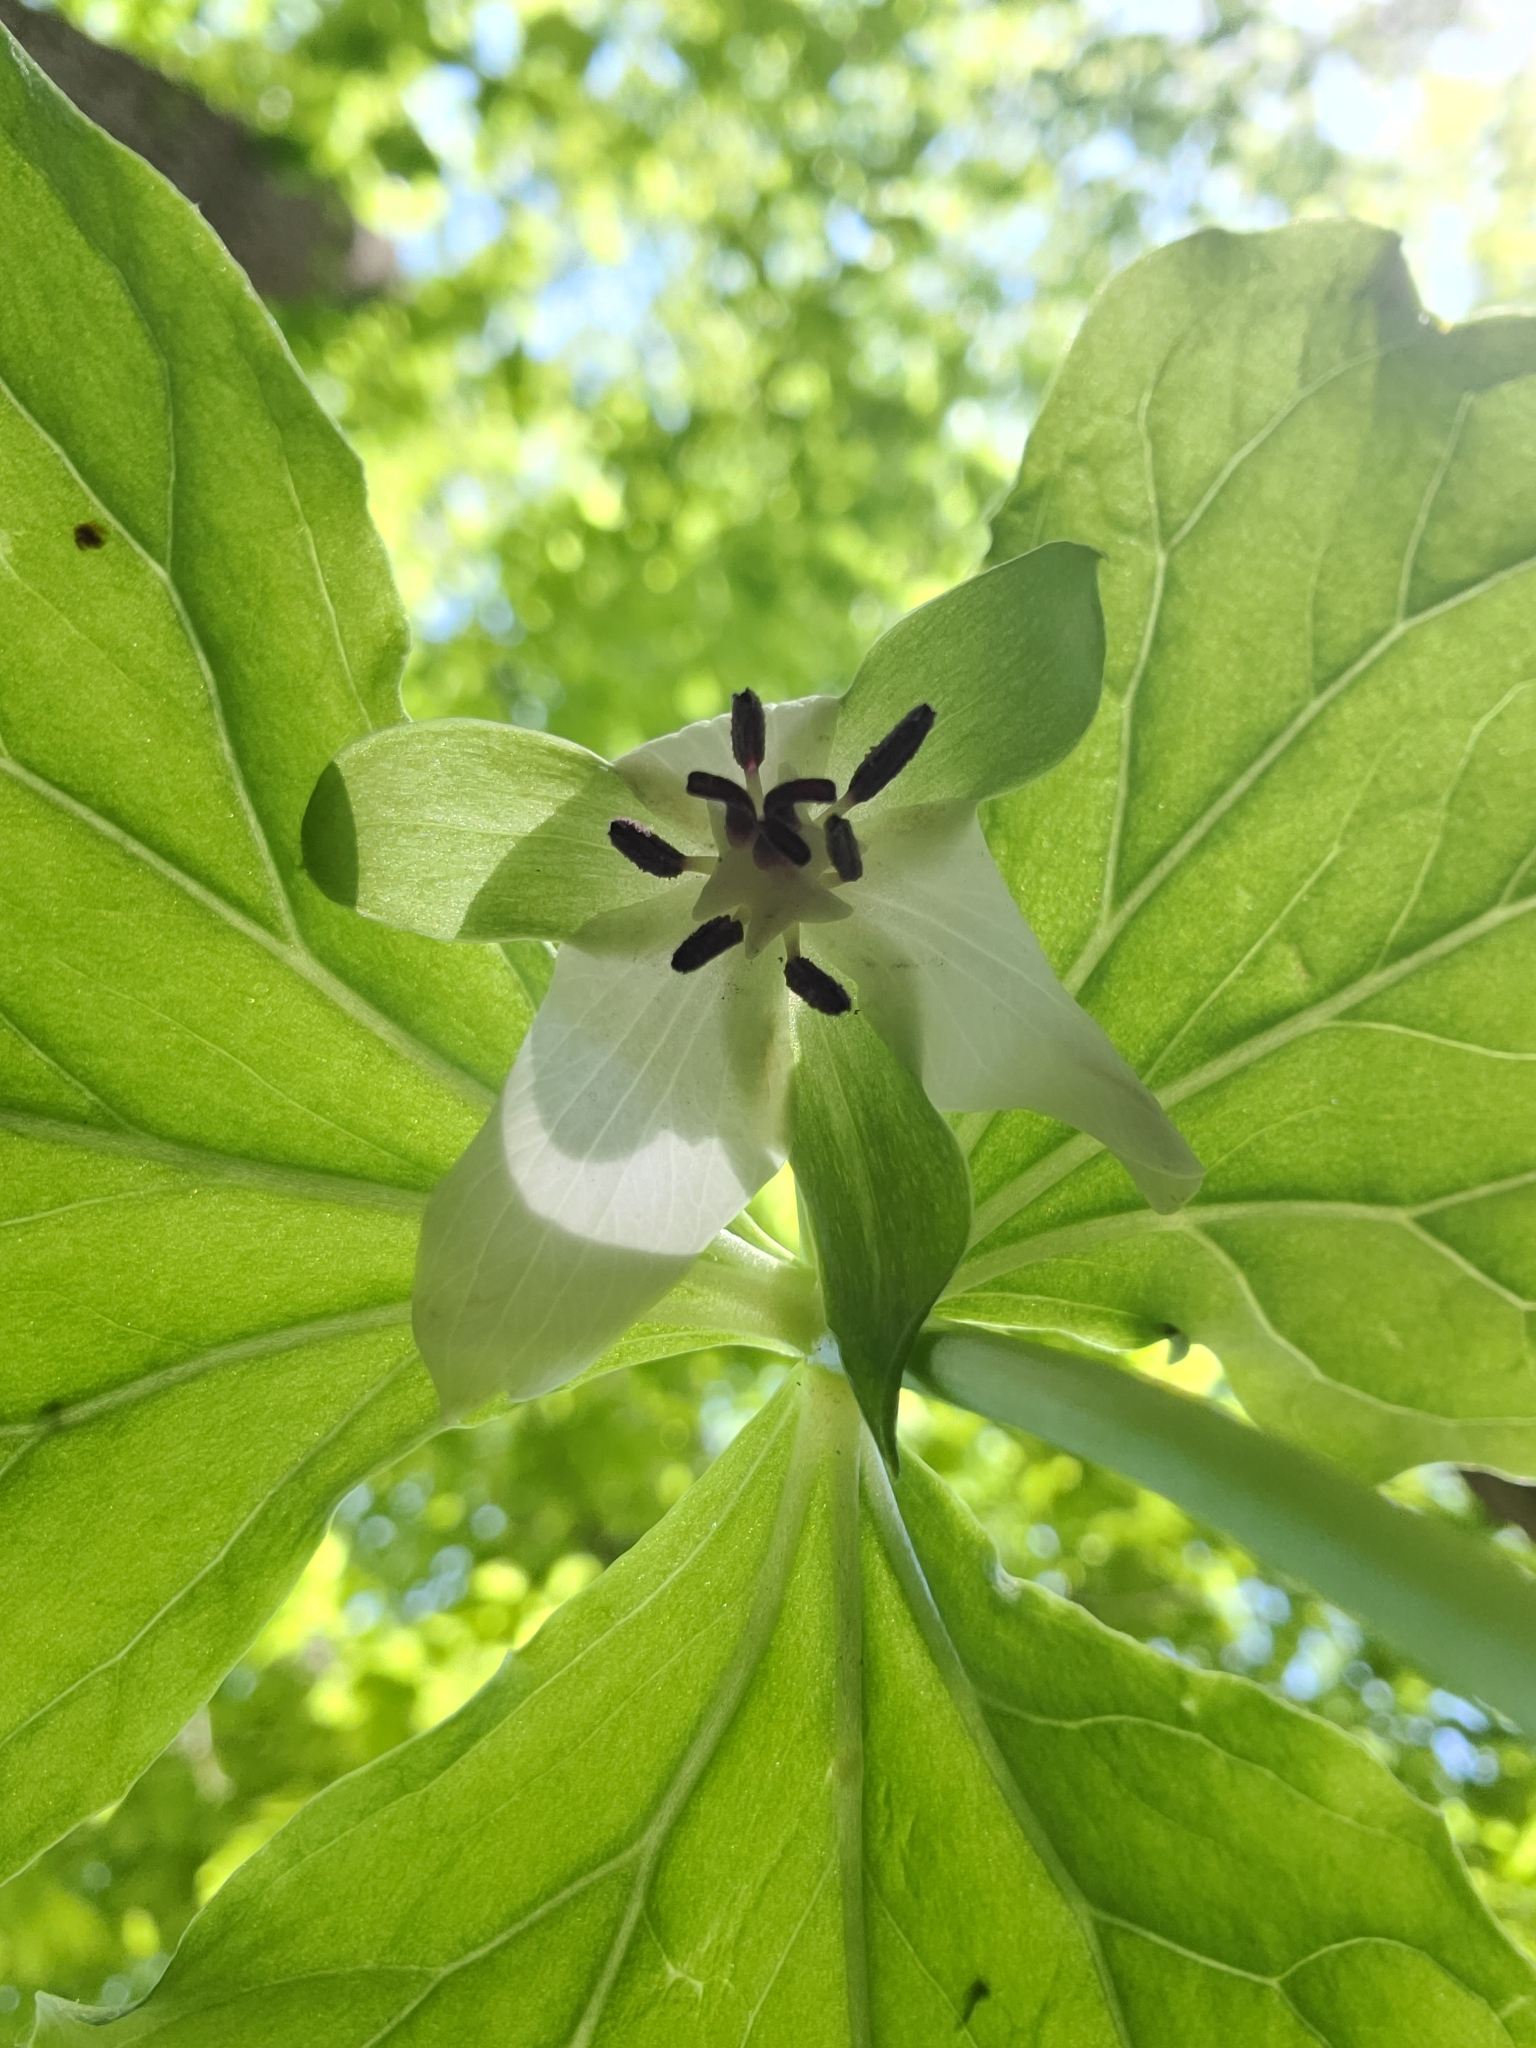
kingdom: Plantae
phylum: Tracheophyta
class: Liliopsida
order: Liliales
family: Melanthiaceae
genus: Trillium
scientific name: Trillium rugelii
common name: Ill-scented trillium
